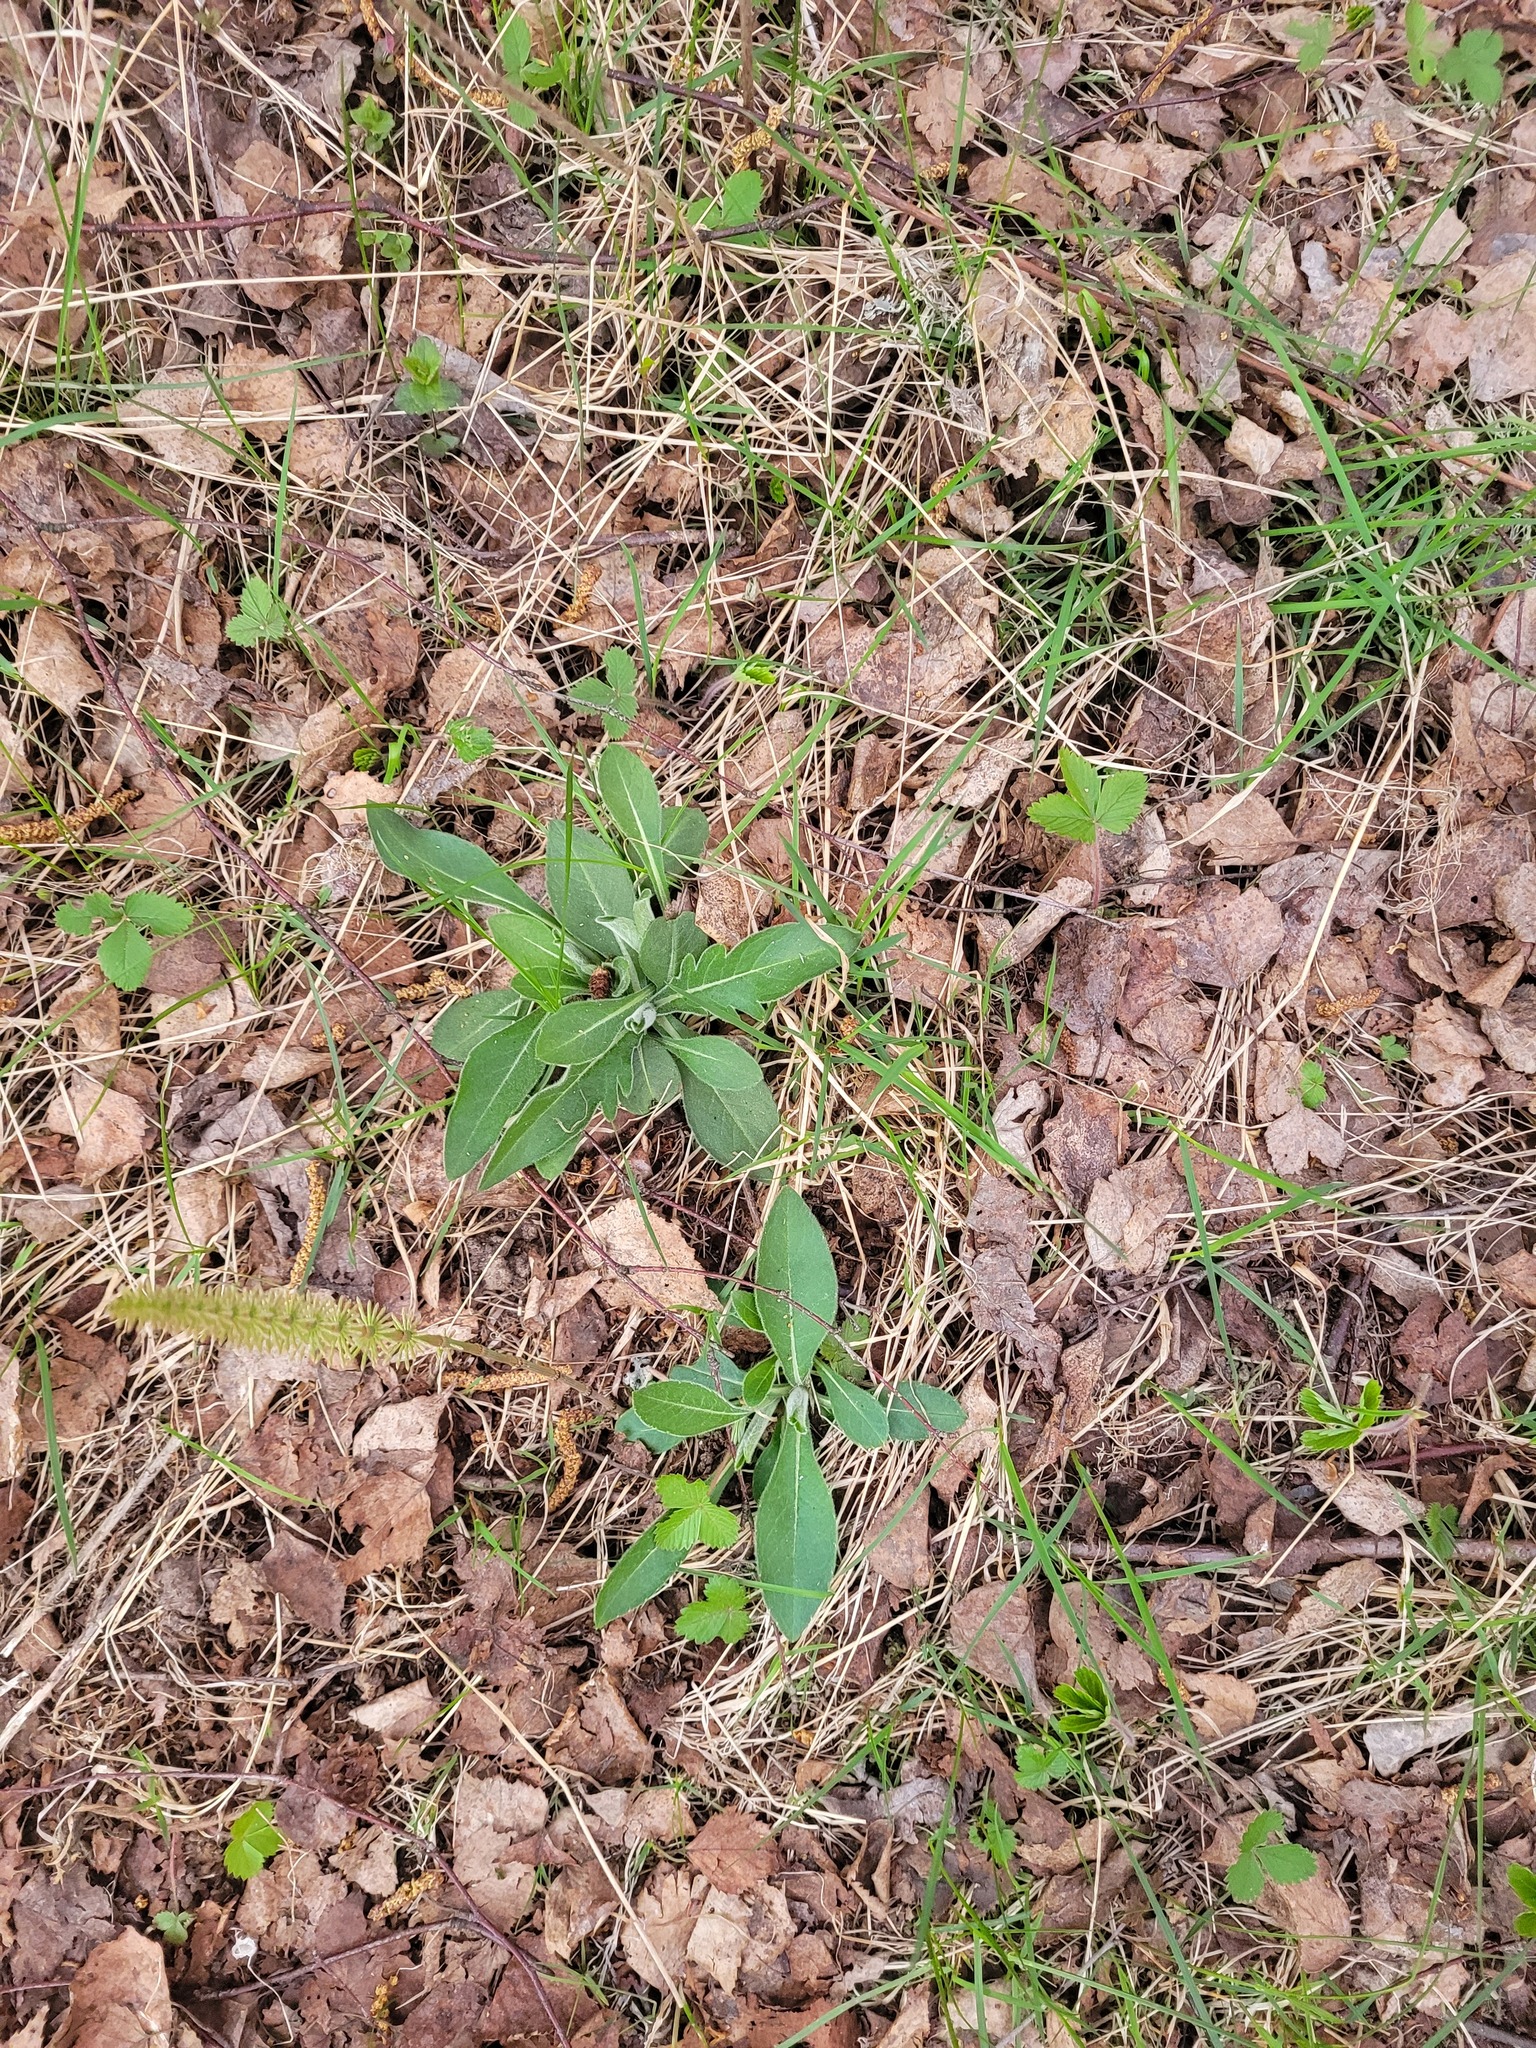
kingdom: Plantae
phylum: Tracheophyta
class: Magnoliopsida
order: Dipsacales
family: Caprifoliaceae
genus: Knautia
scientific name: Knautia arvensis
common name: Field scabiosa
